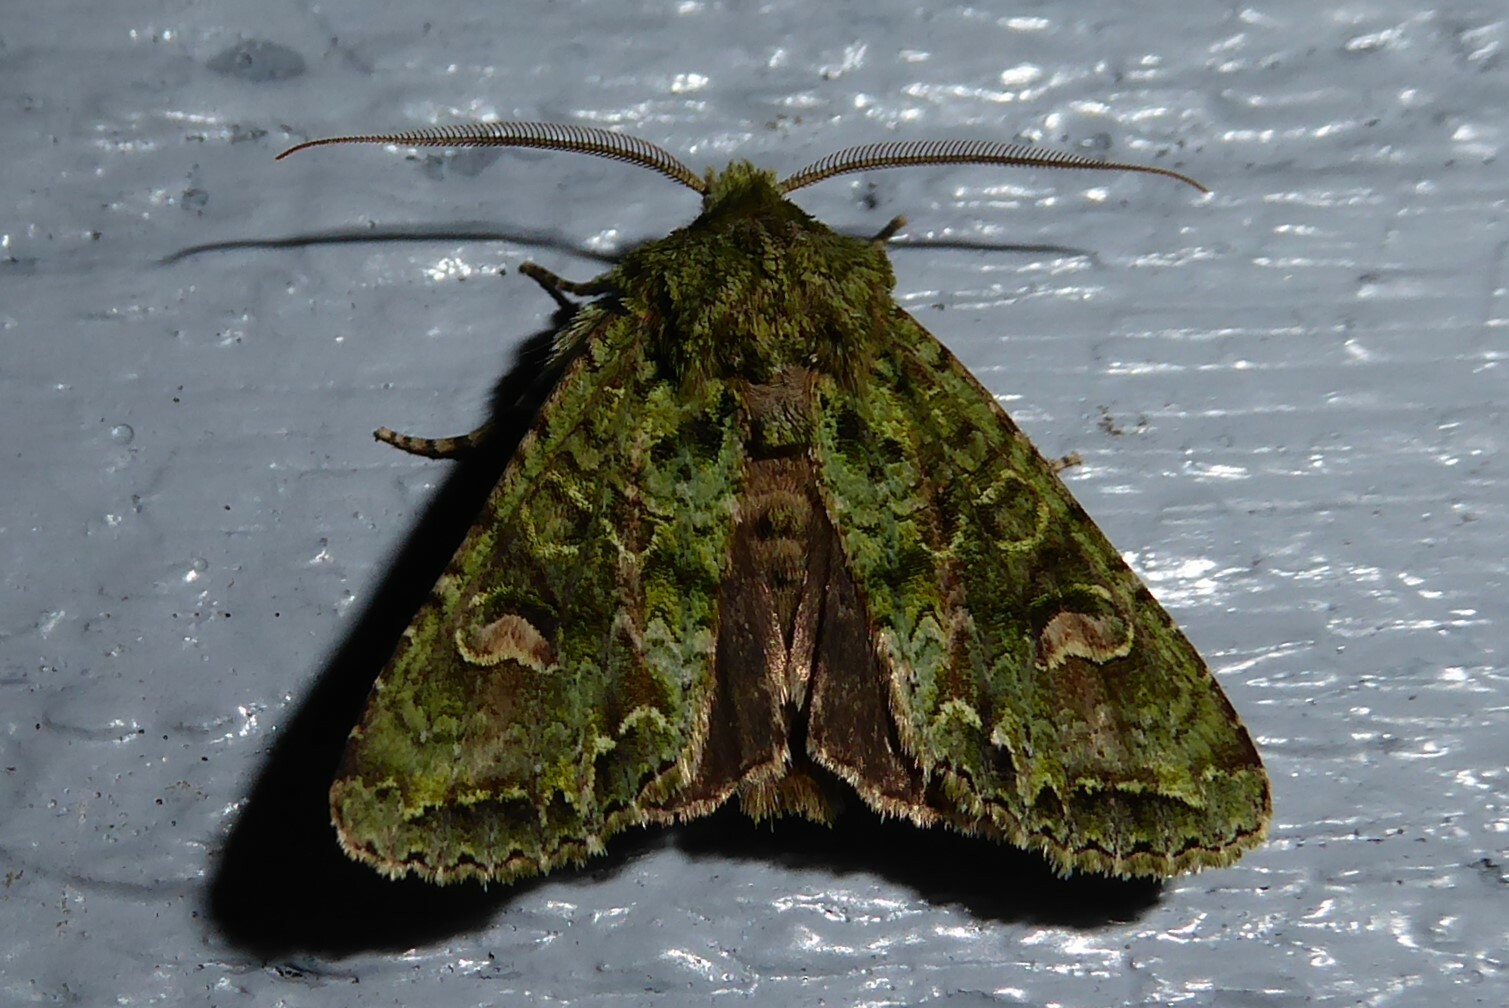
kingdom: Animalia
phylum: Arthropoda
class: Insecta
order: Lepidoptera
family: Noctuidae
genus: Ichneutica
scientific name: Ichneutica
